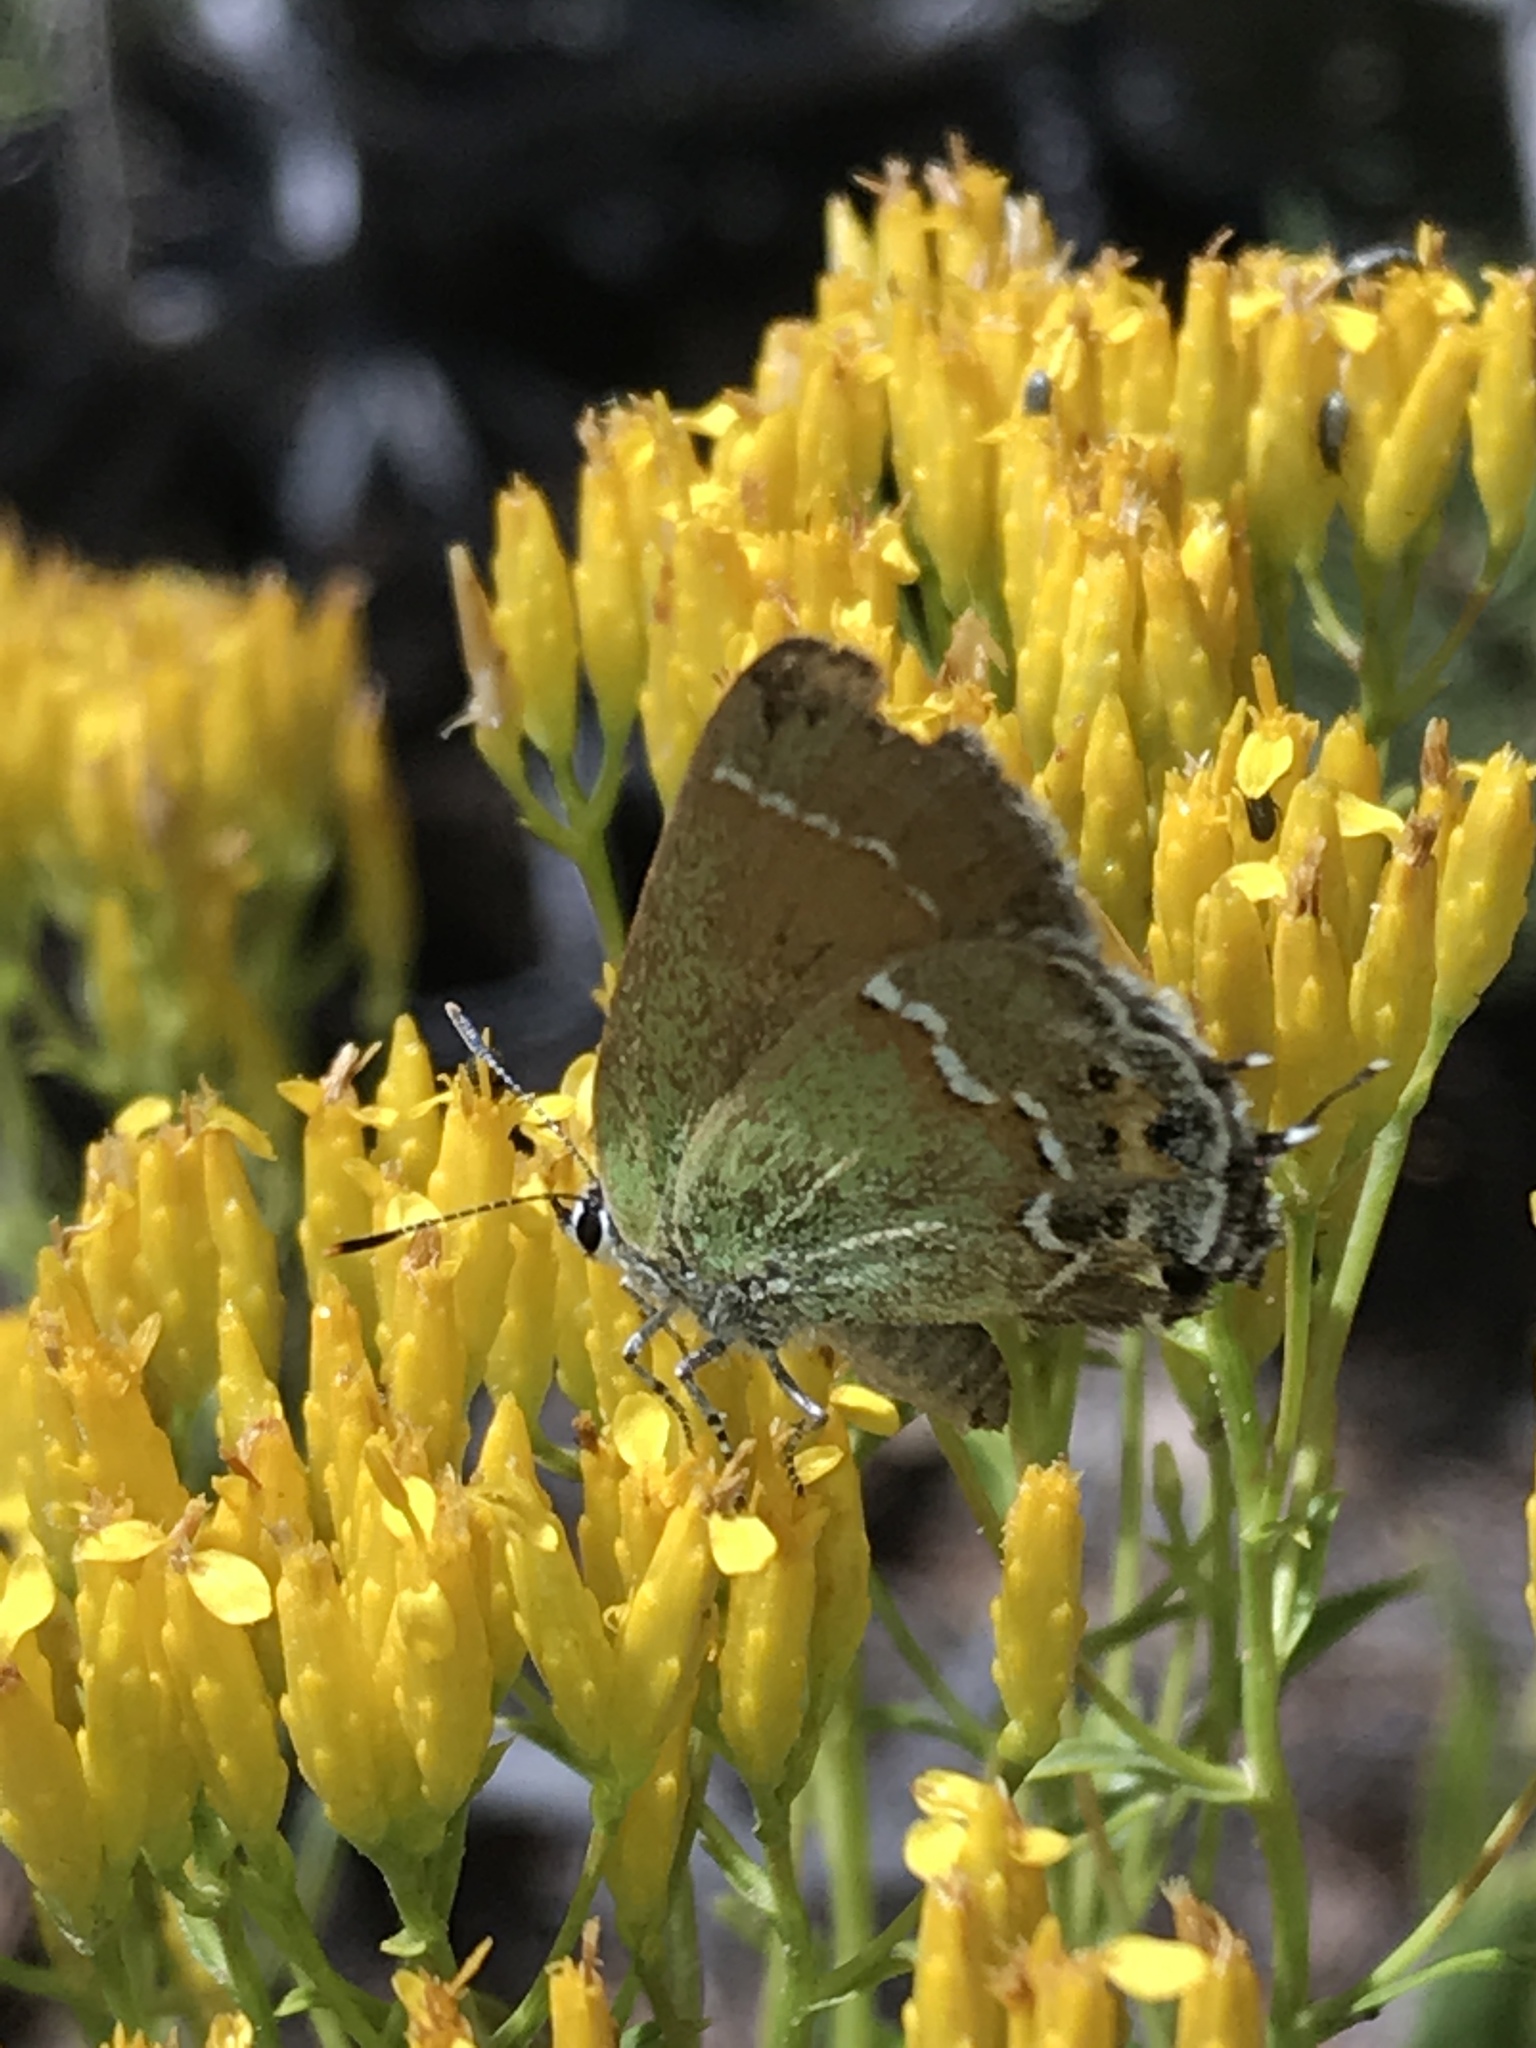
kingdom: Animalia
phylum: Arthropoda
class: Insecta
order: Lepidoptera
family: Lycaenidae
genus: Mitoura
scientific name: Mitoura siva
